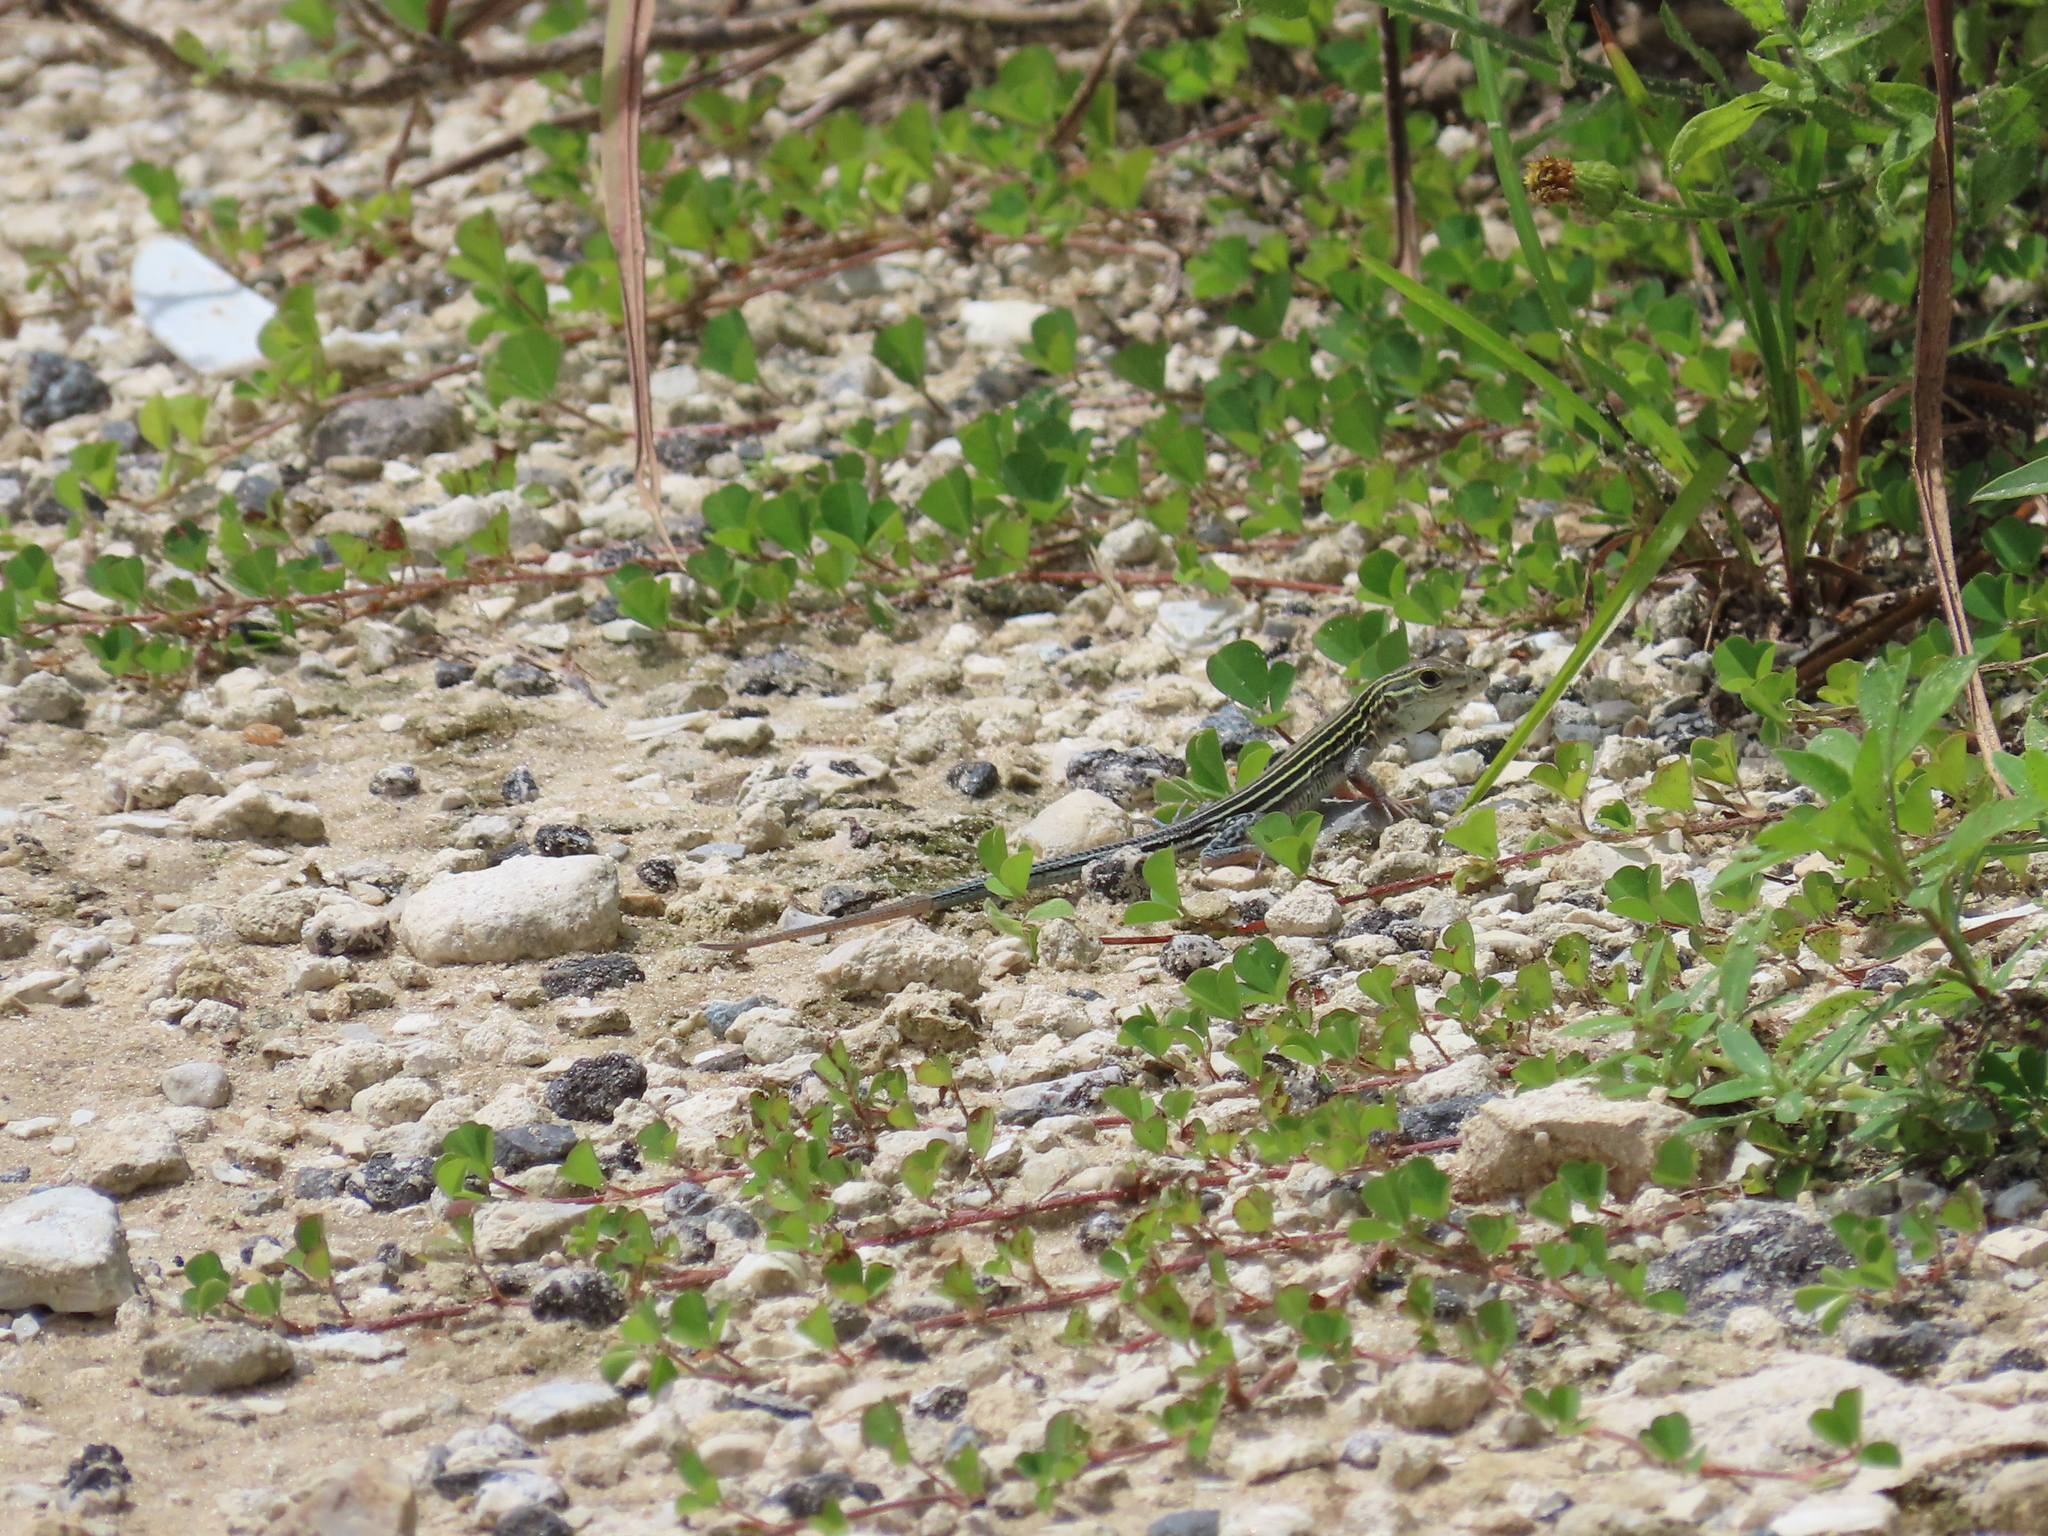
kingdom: Animalia
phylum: Chordata
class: Squamata
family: Teiidae
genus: Aspidoscelis
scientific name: Aspidoscelis sexlineatus
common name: Six-lined racerunner
